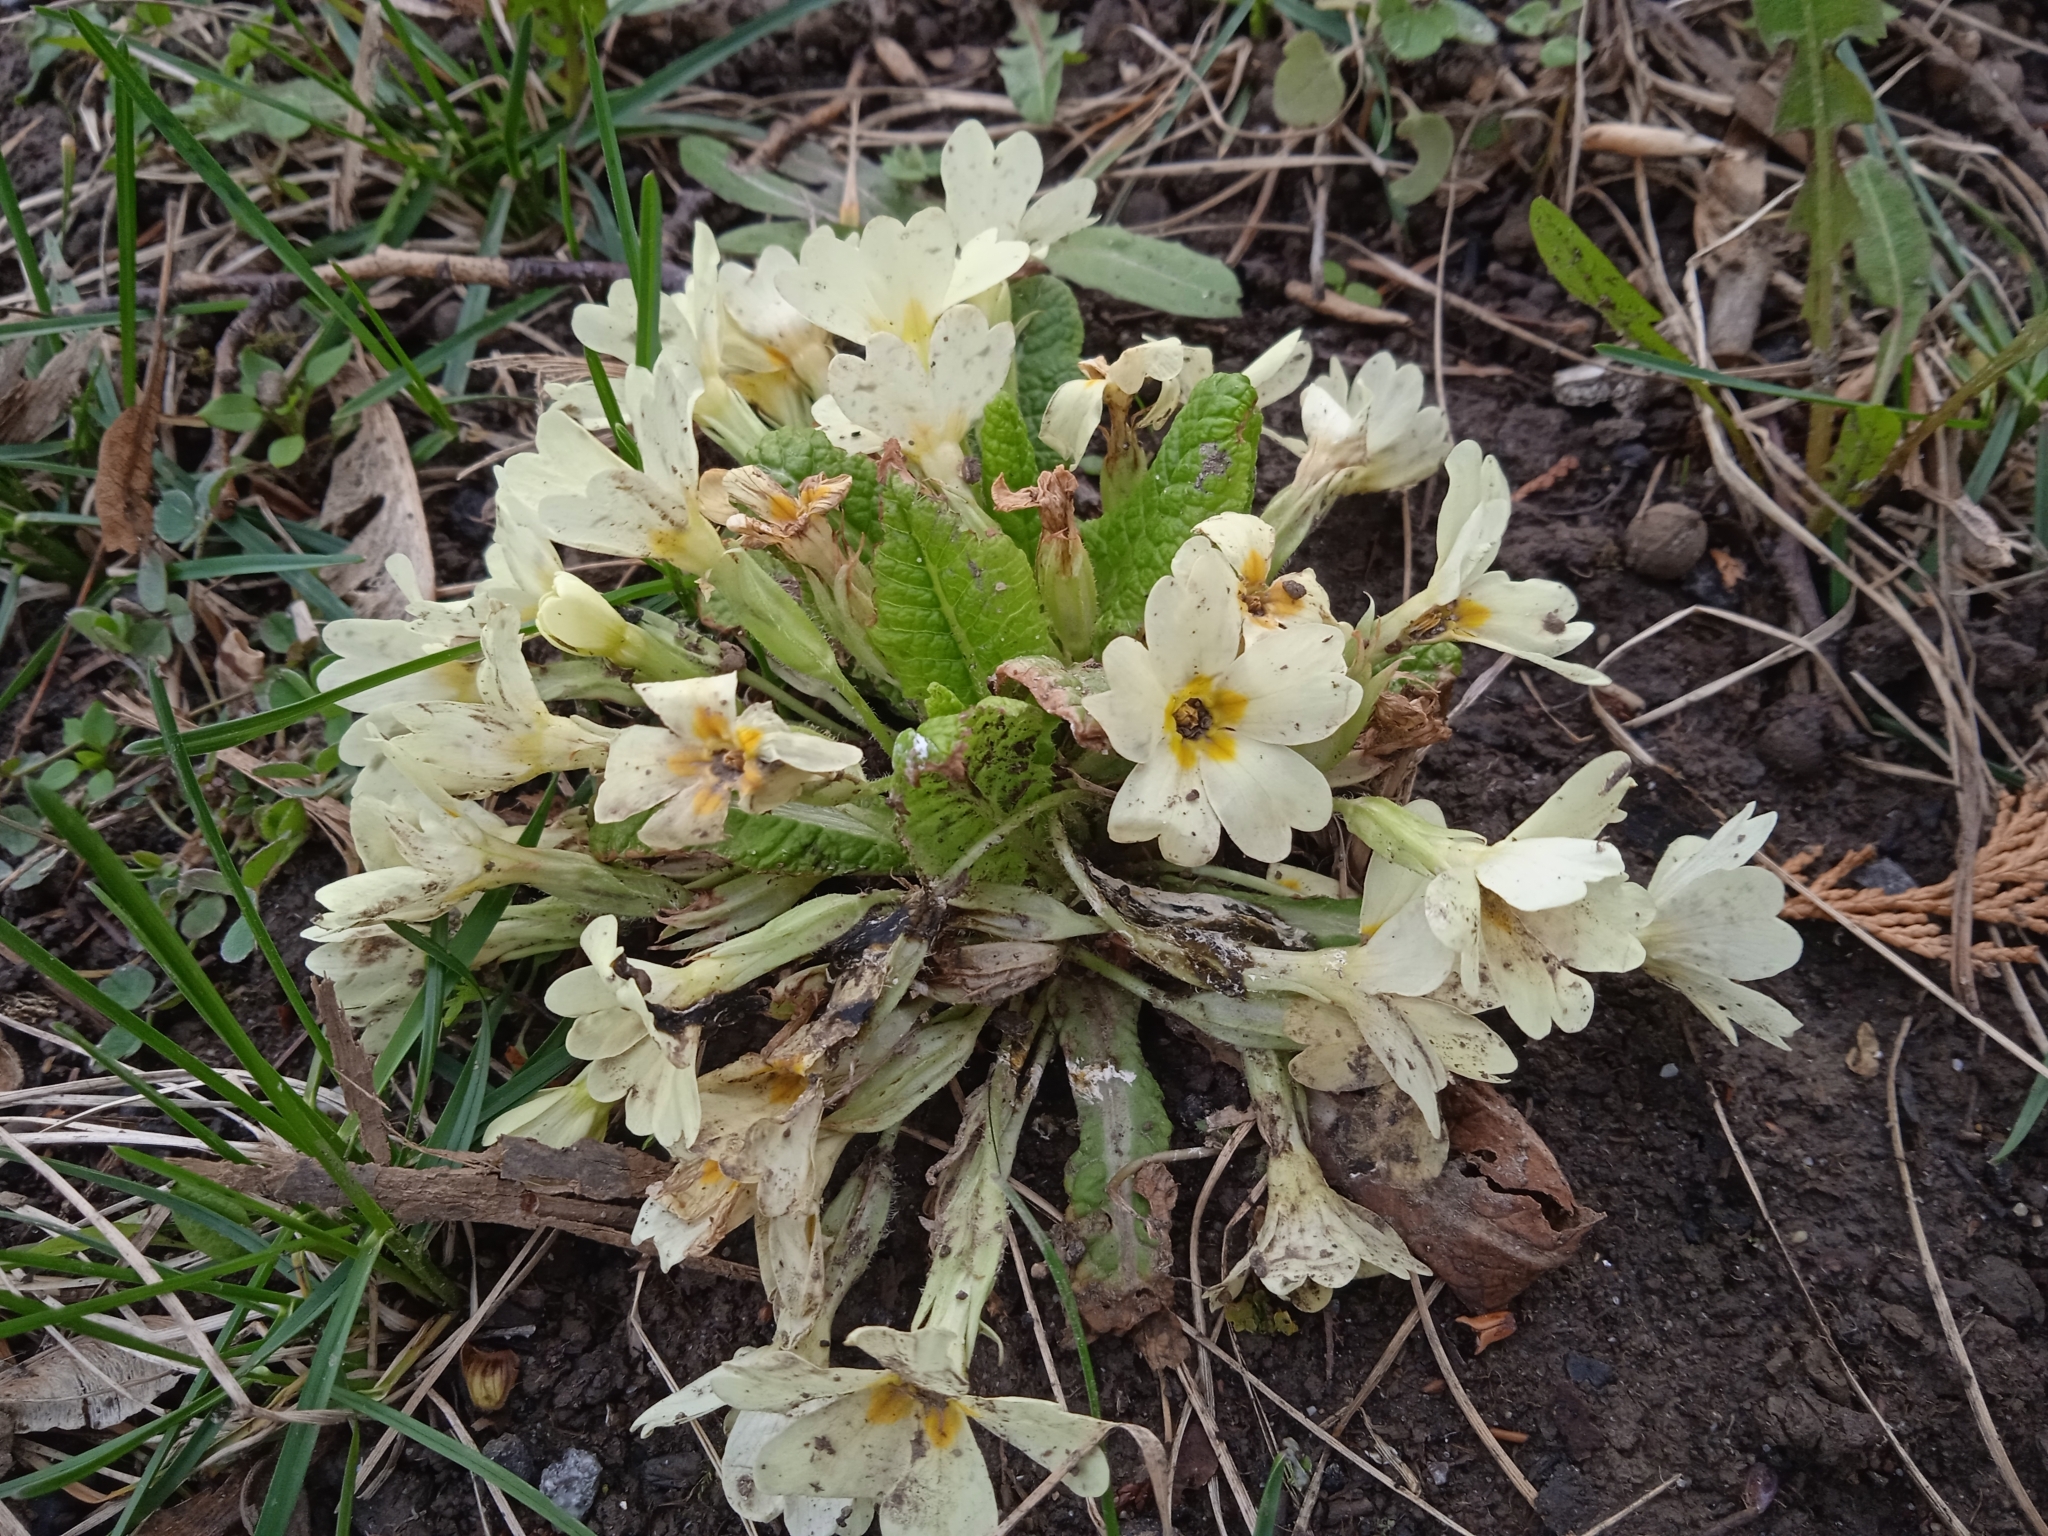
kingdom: Plantae
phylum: Tracheophyta
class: Magnoliopsida
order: Ericales
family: Primulaceae
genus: Primula
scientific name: Primula vulgaris
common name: Primrose
